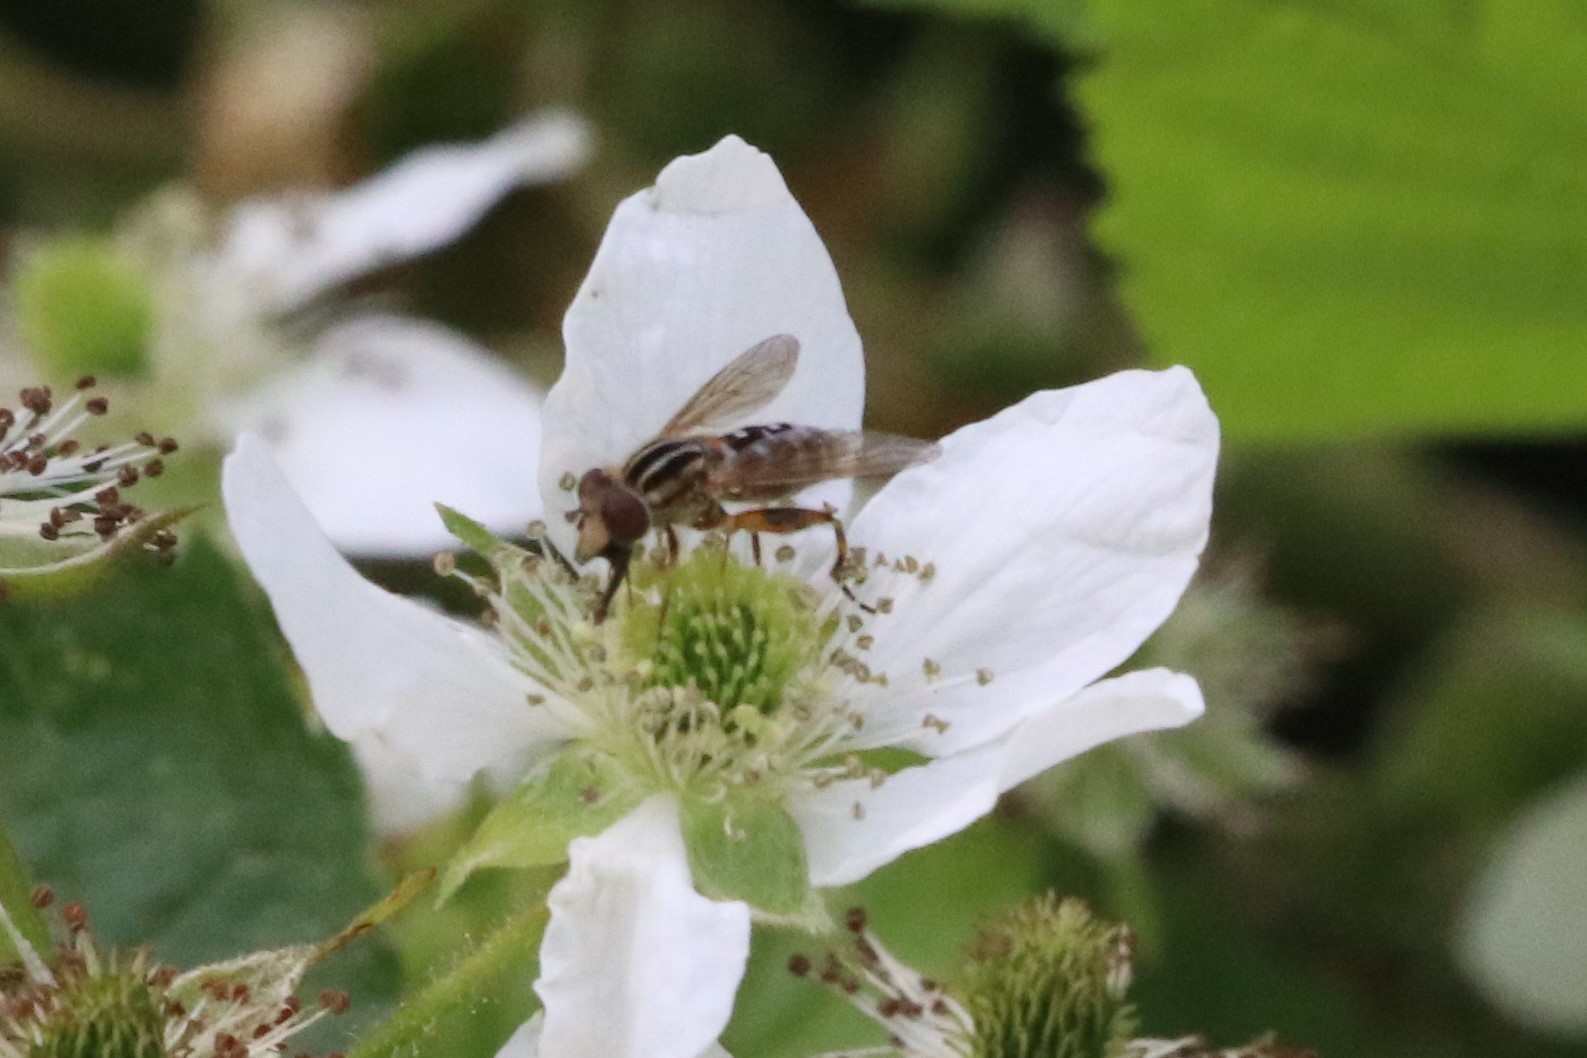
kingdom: Animalia
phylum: Arthropoda
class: Insecta
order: Diptera
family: Syrphidae
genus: Eurimyia
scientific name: Eurimyia stipatus
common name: Long-nosed swamp fly
